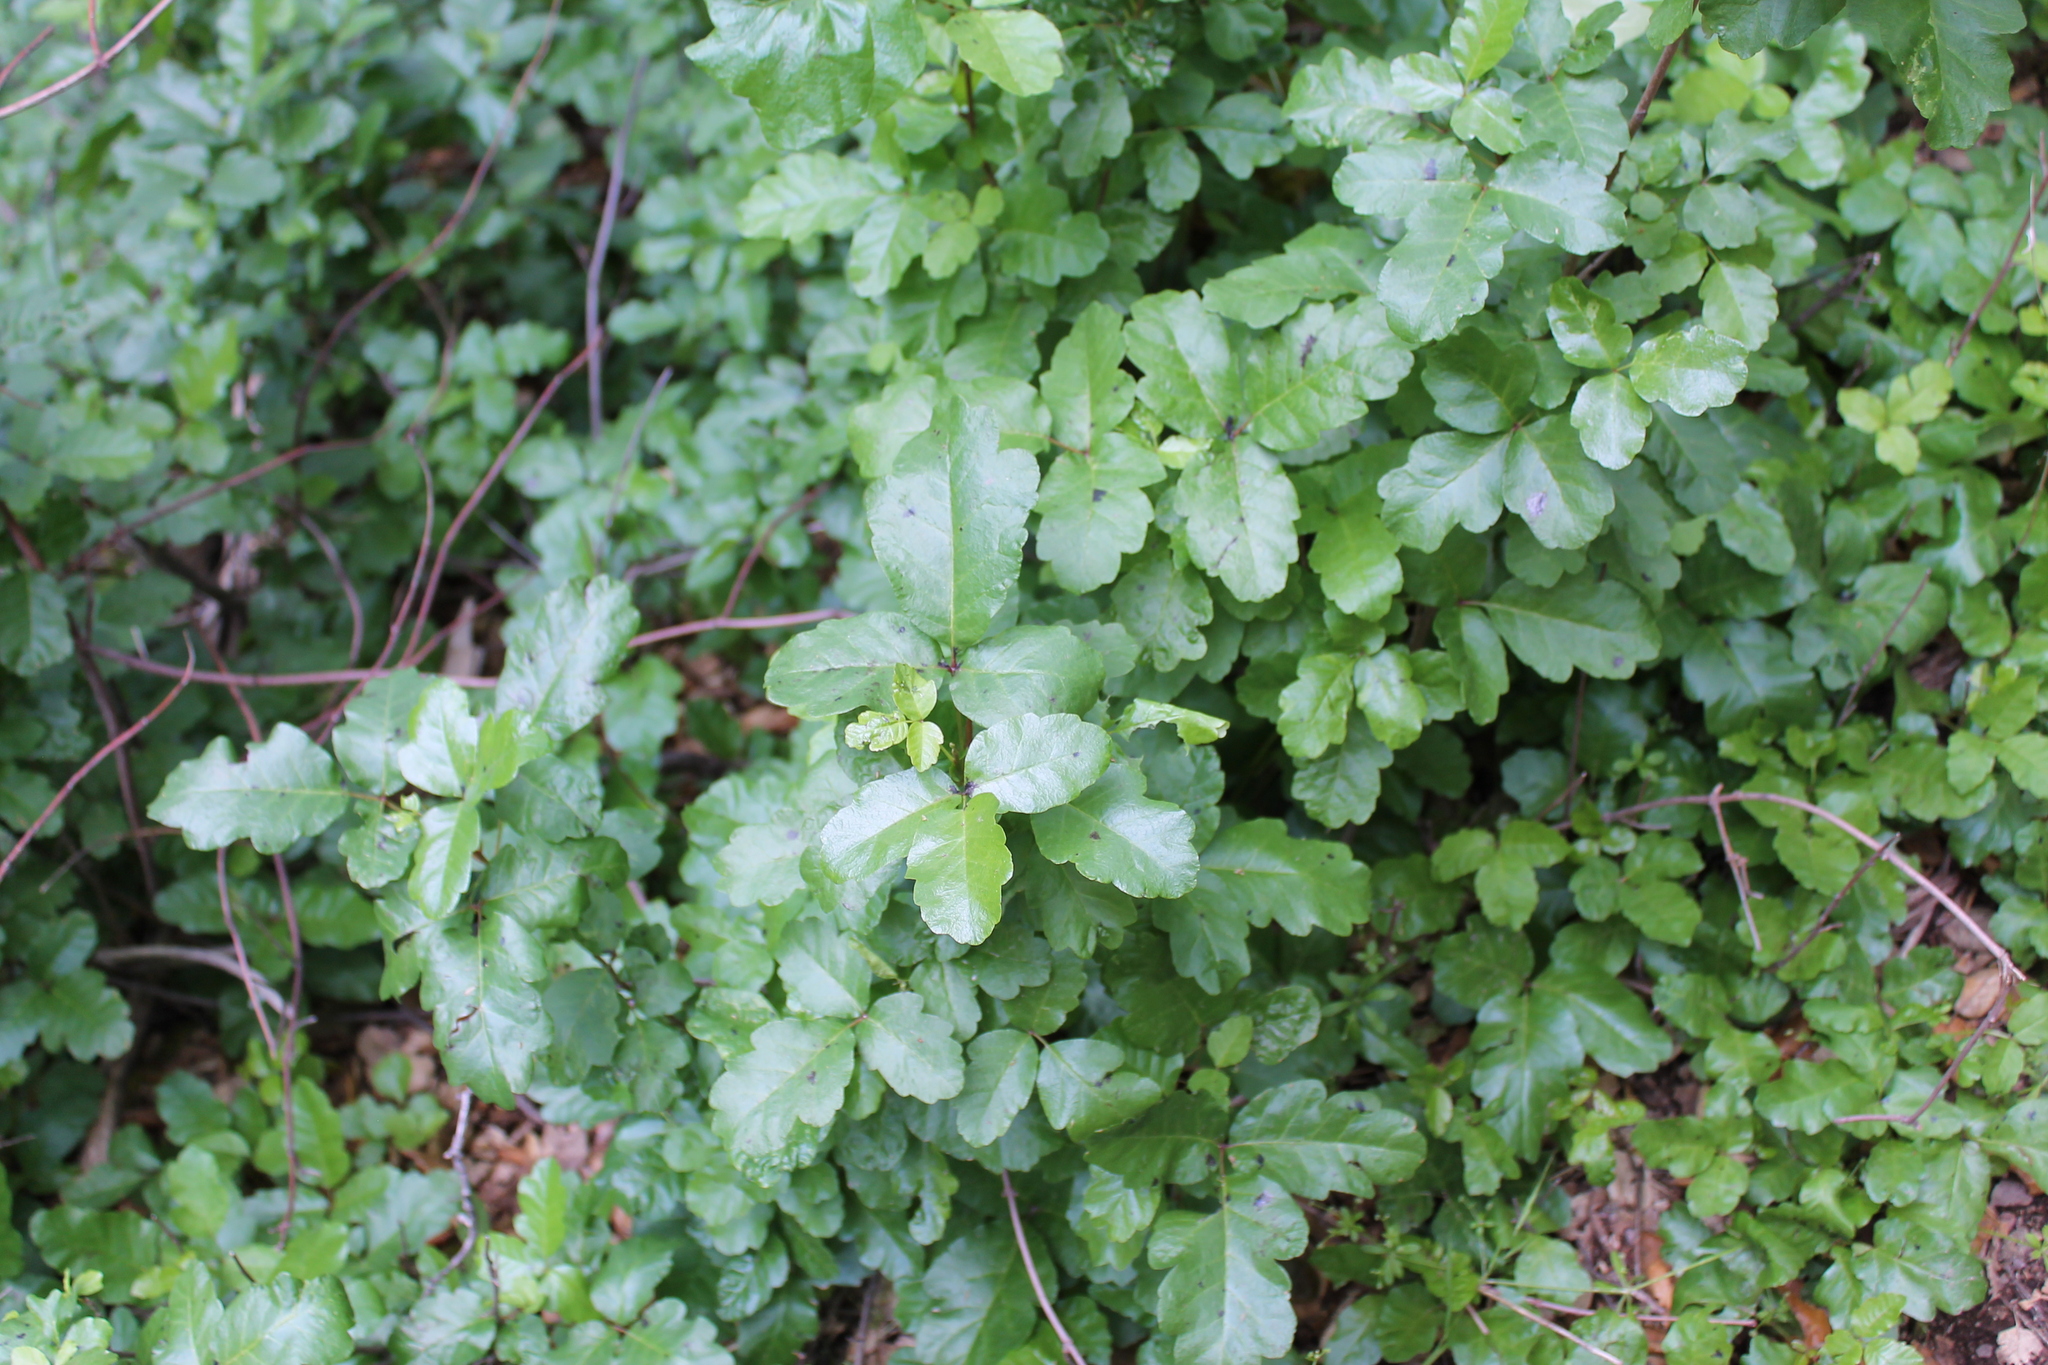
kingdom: Plantae
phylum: Tracheophyta
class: Magnoliopsida
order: Sapindales
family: Anacardiaceae
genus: Toxicodendron
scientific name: Toxicodendron diversilobum
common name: Pacific poison-oak
